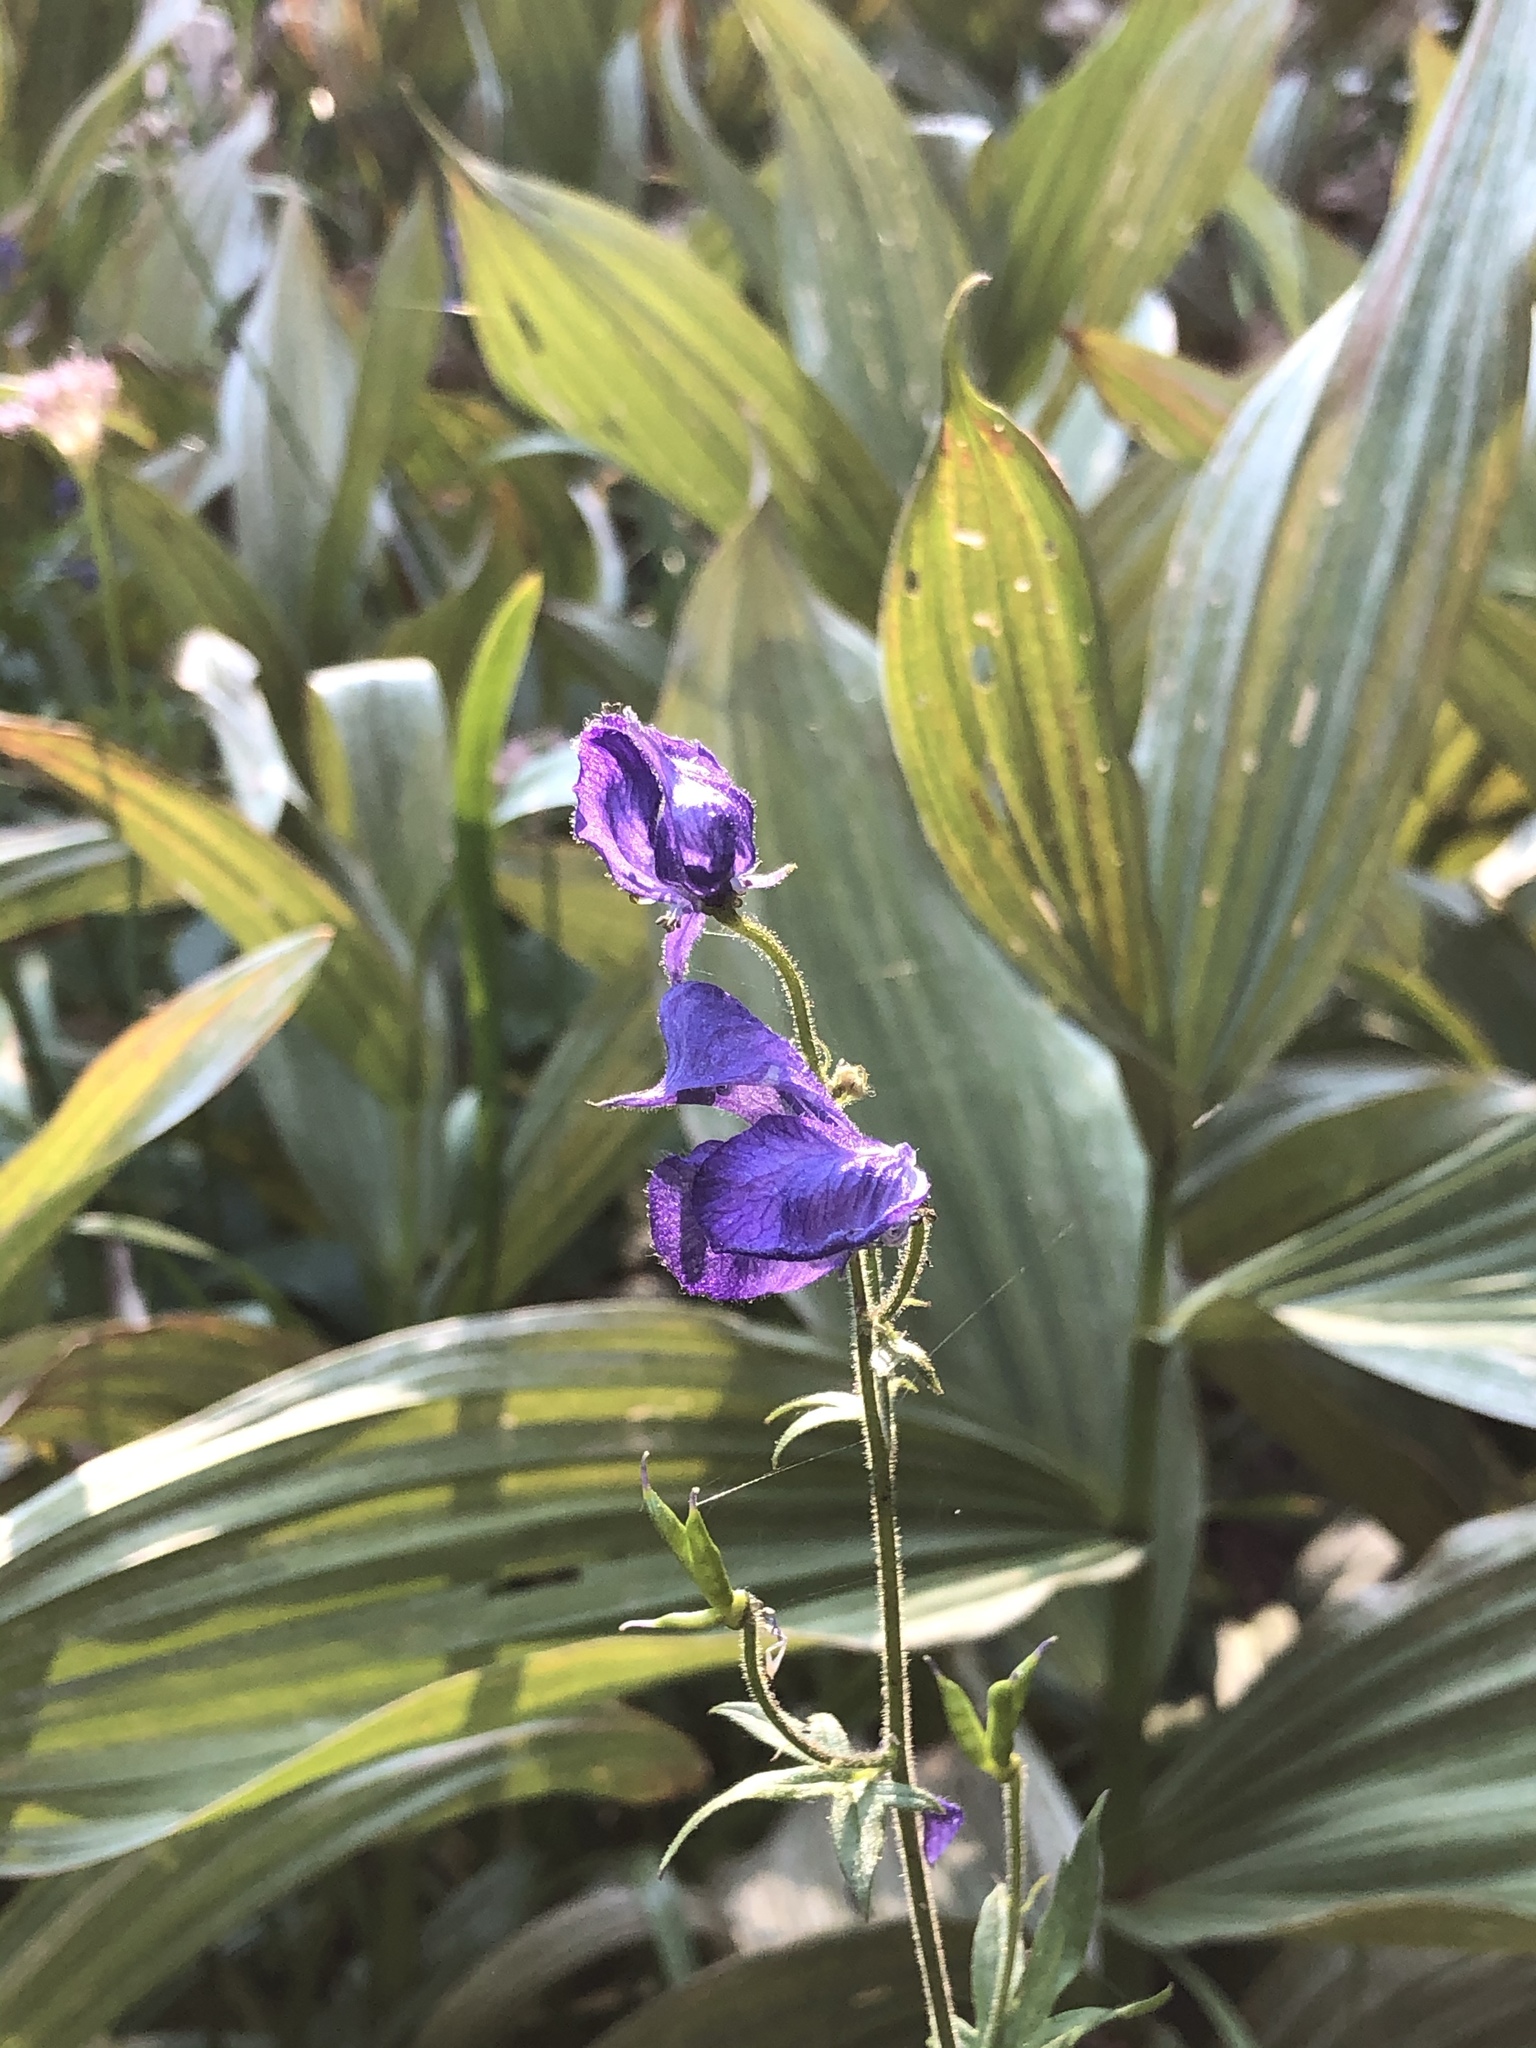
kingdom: Plantae
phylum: Tracheophyta
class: Magnoliopsida
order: Ranunculales
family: Ranunculaceae
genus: Aconitum
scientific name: Aconitum columbianum
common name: Columbia aconite
